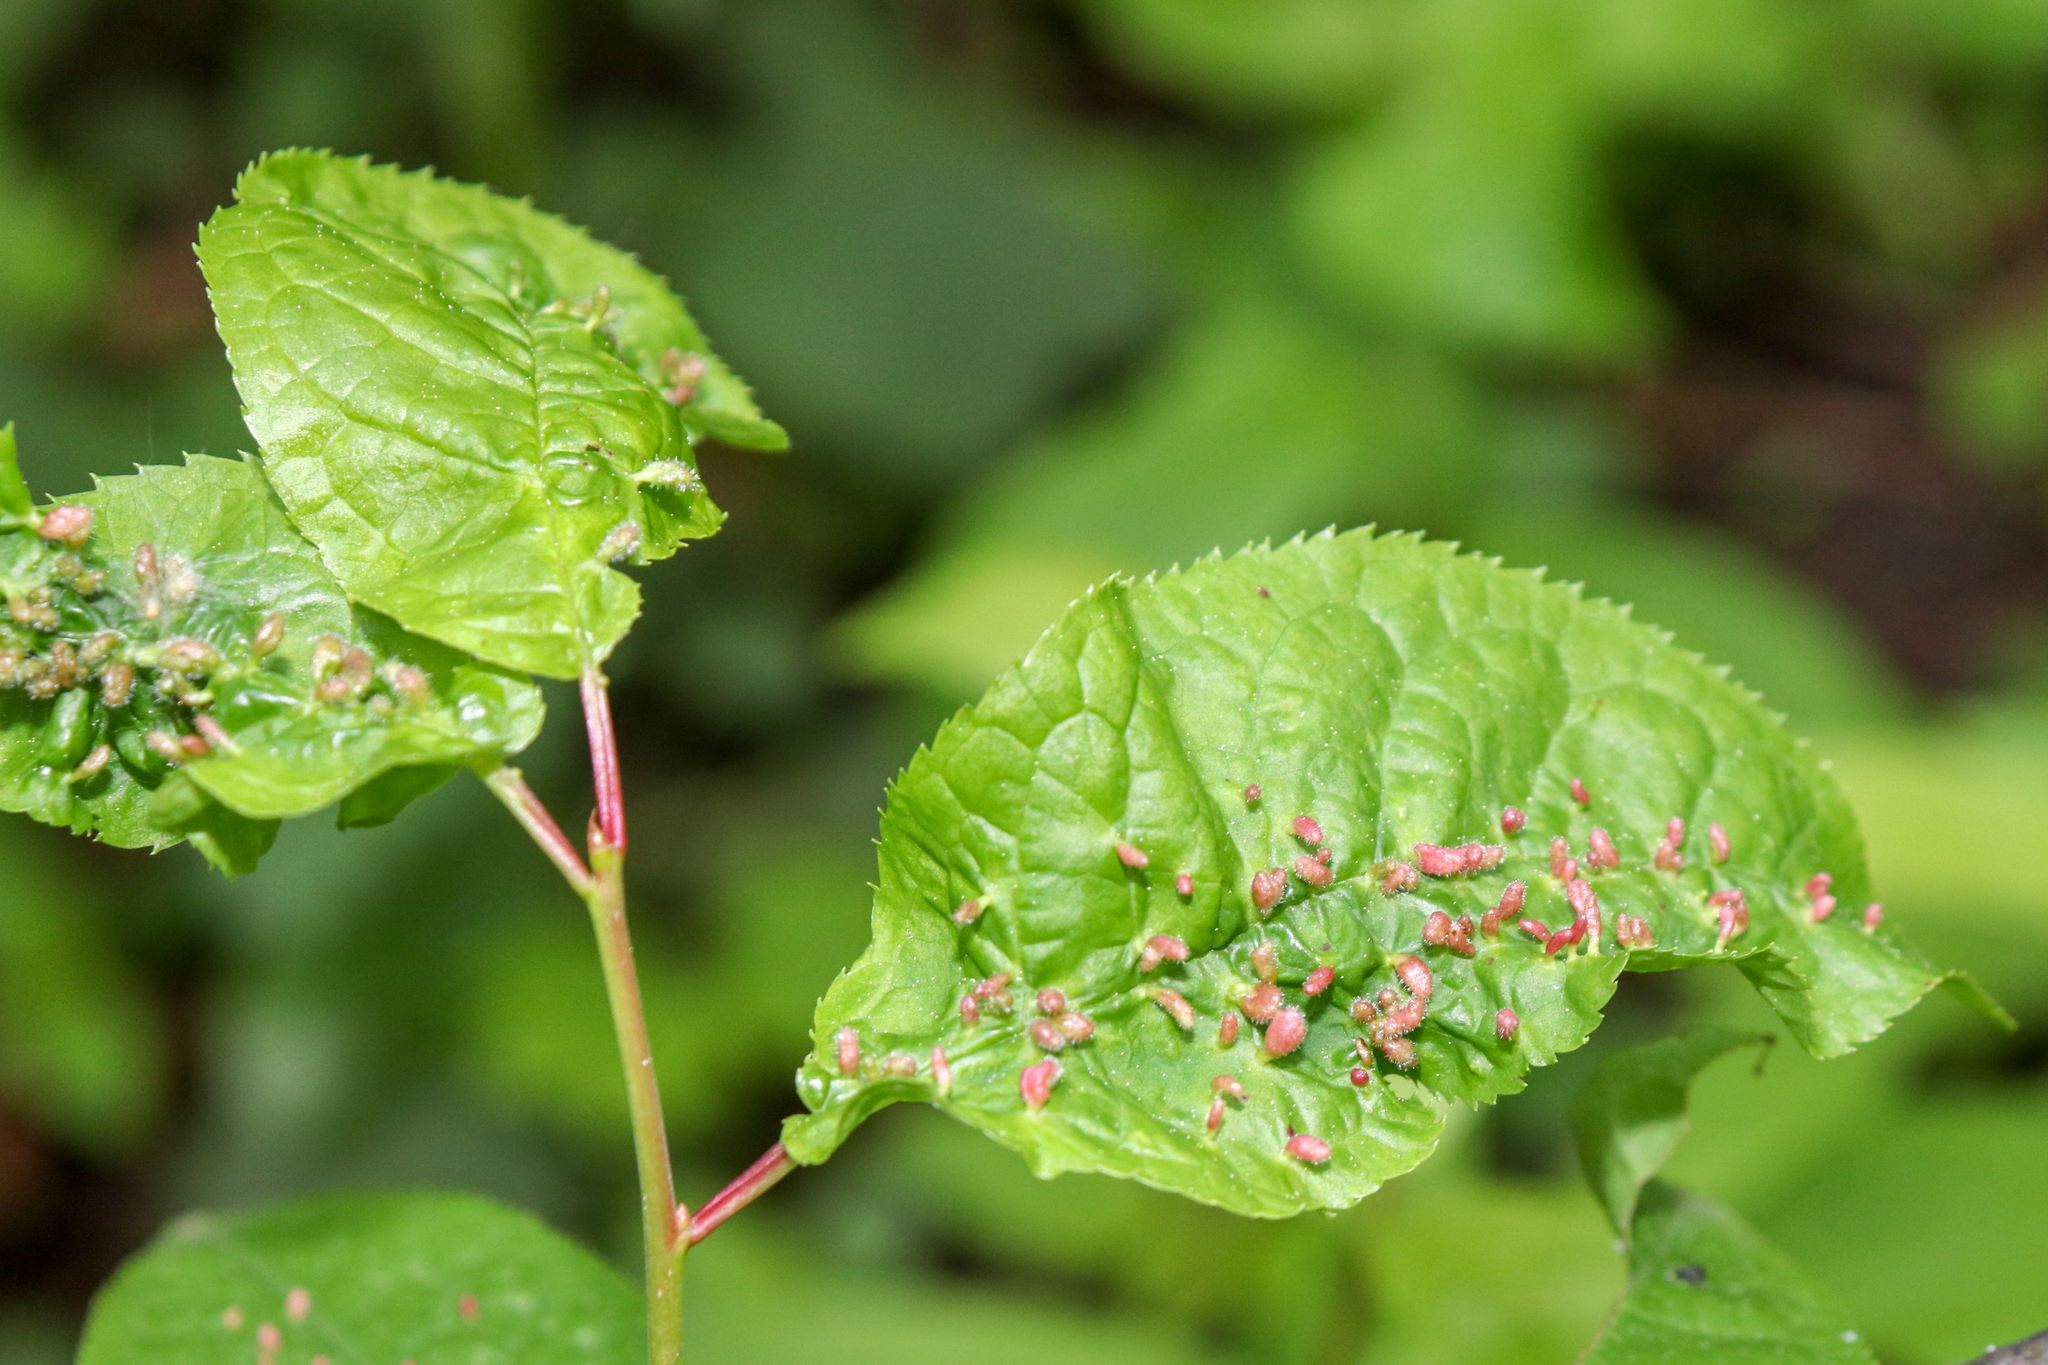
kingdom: Animalia
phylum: Arthropoda
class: Arachnida
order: Trombidiformes
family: Eriophyidae
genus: Phyllocoptes
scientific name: Phyllocoptes eupadi
